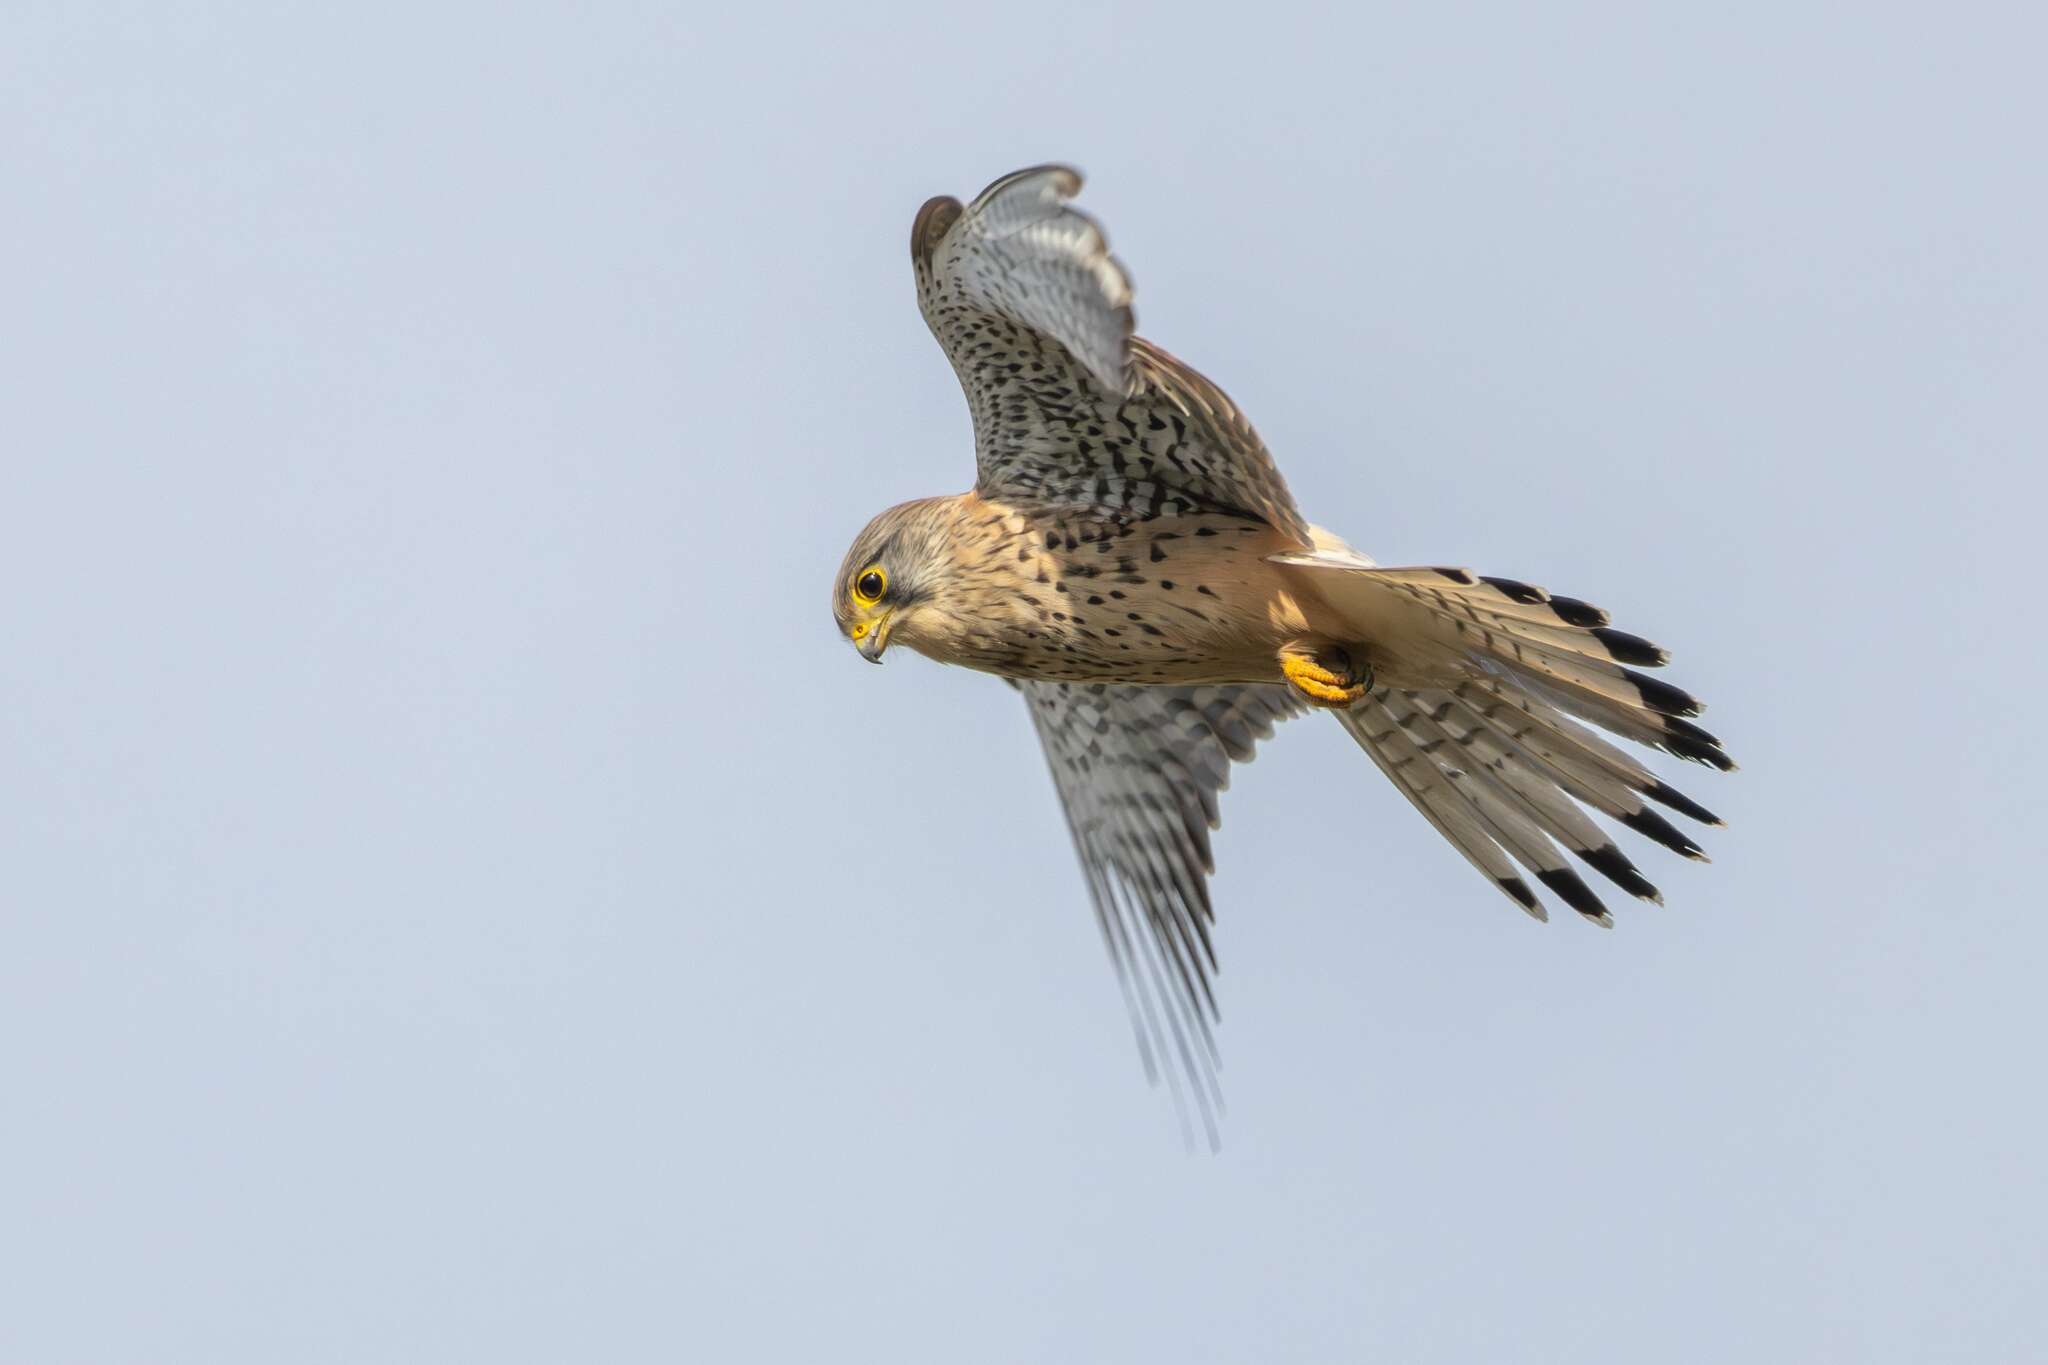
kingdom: Animalia
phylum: Chordata
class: Aves
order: Falconiformes
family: Falconidae
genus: Falco
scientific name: Falco tinnunculus
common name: Common kestrel
